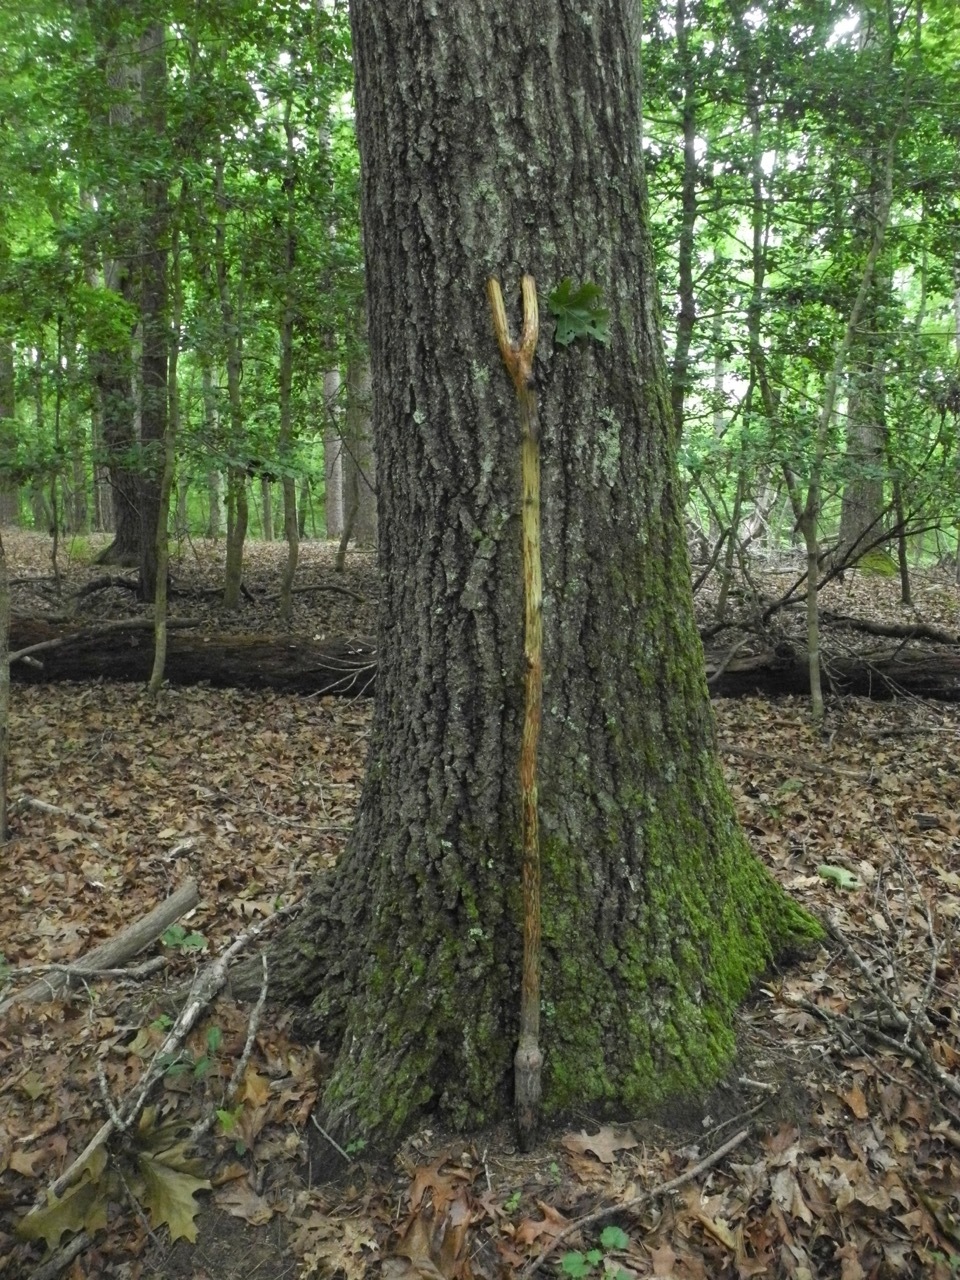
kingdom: Plantae
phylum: Tracheophyta
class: Magnoliopsida
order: Fagales
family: Fagaceae
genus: Quercus
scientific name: Quercus rubra
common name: Red oak
